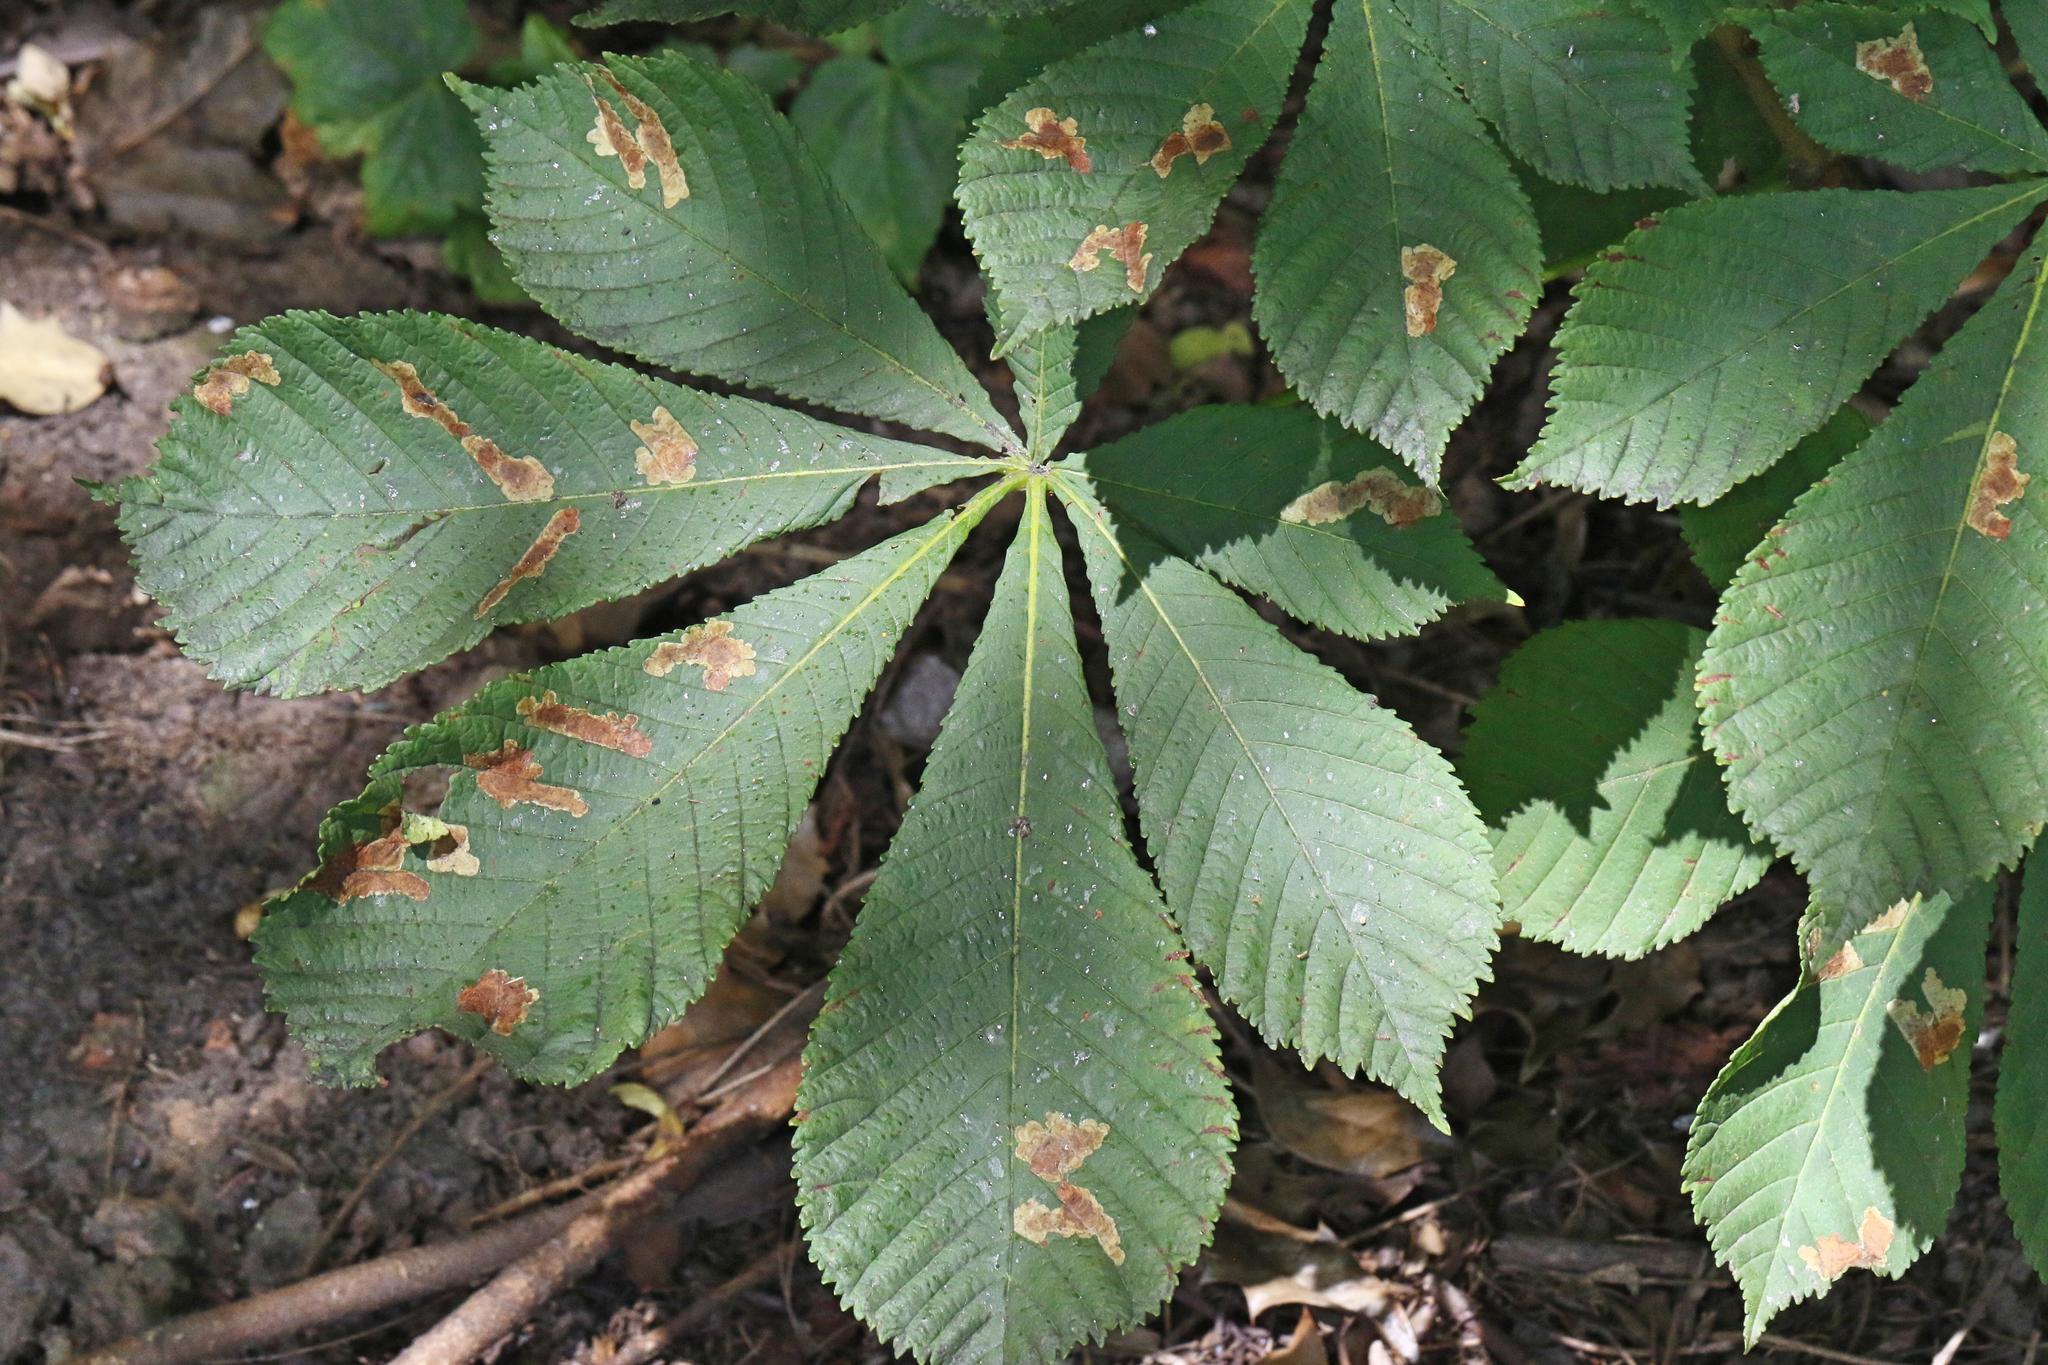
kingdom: Animalia
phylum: Arthropoda
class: Insecta
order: Lepidoptera
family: Gracillariidae
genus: Cameraria
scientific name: Cameraria ohridella
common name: Horse-chestnut leaf-miner
